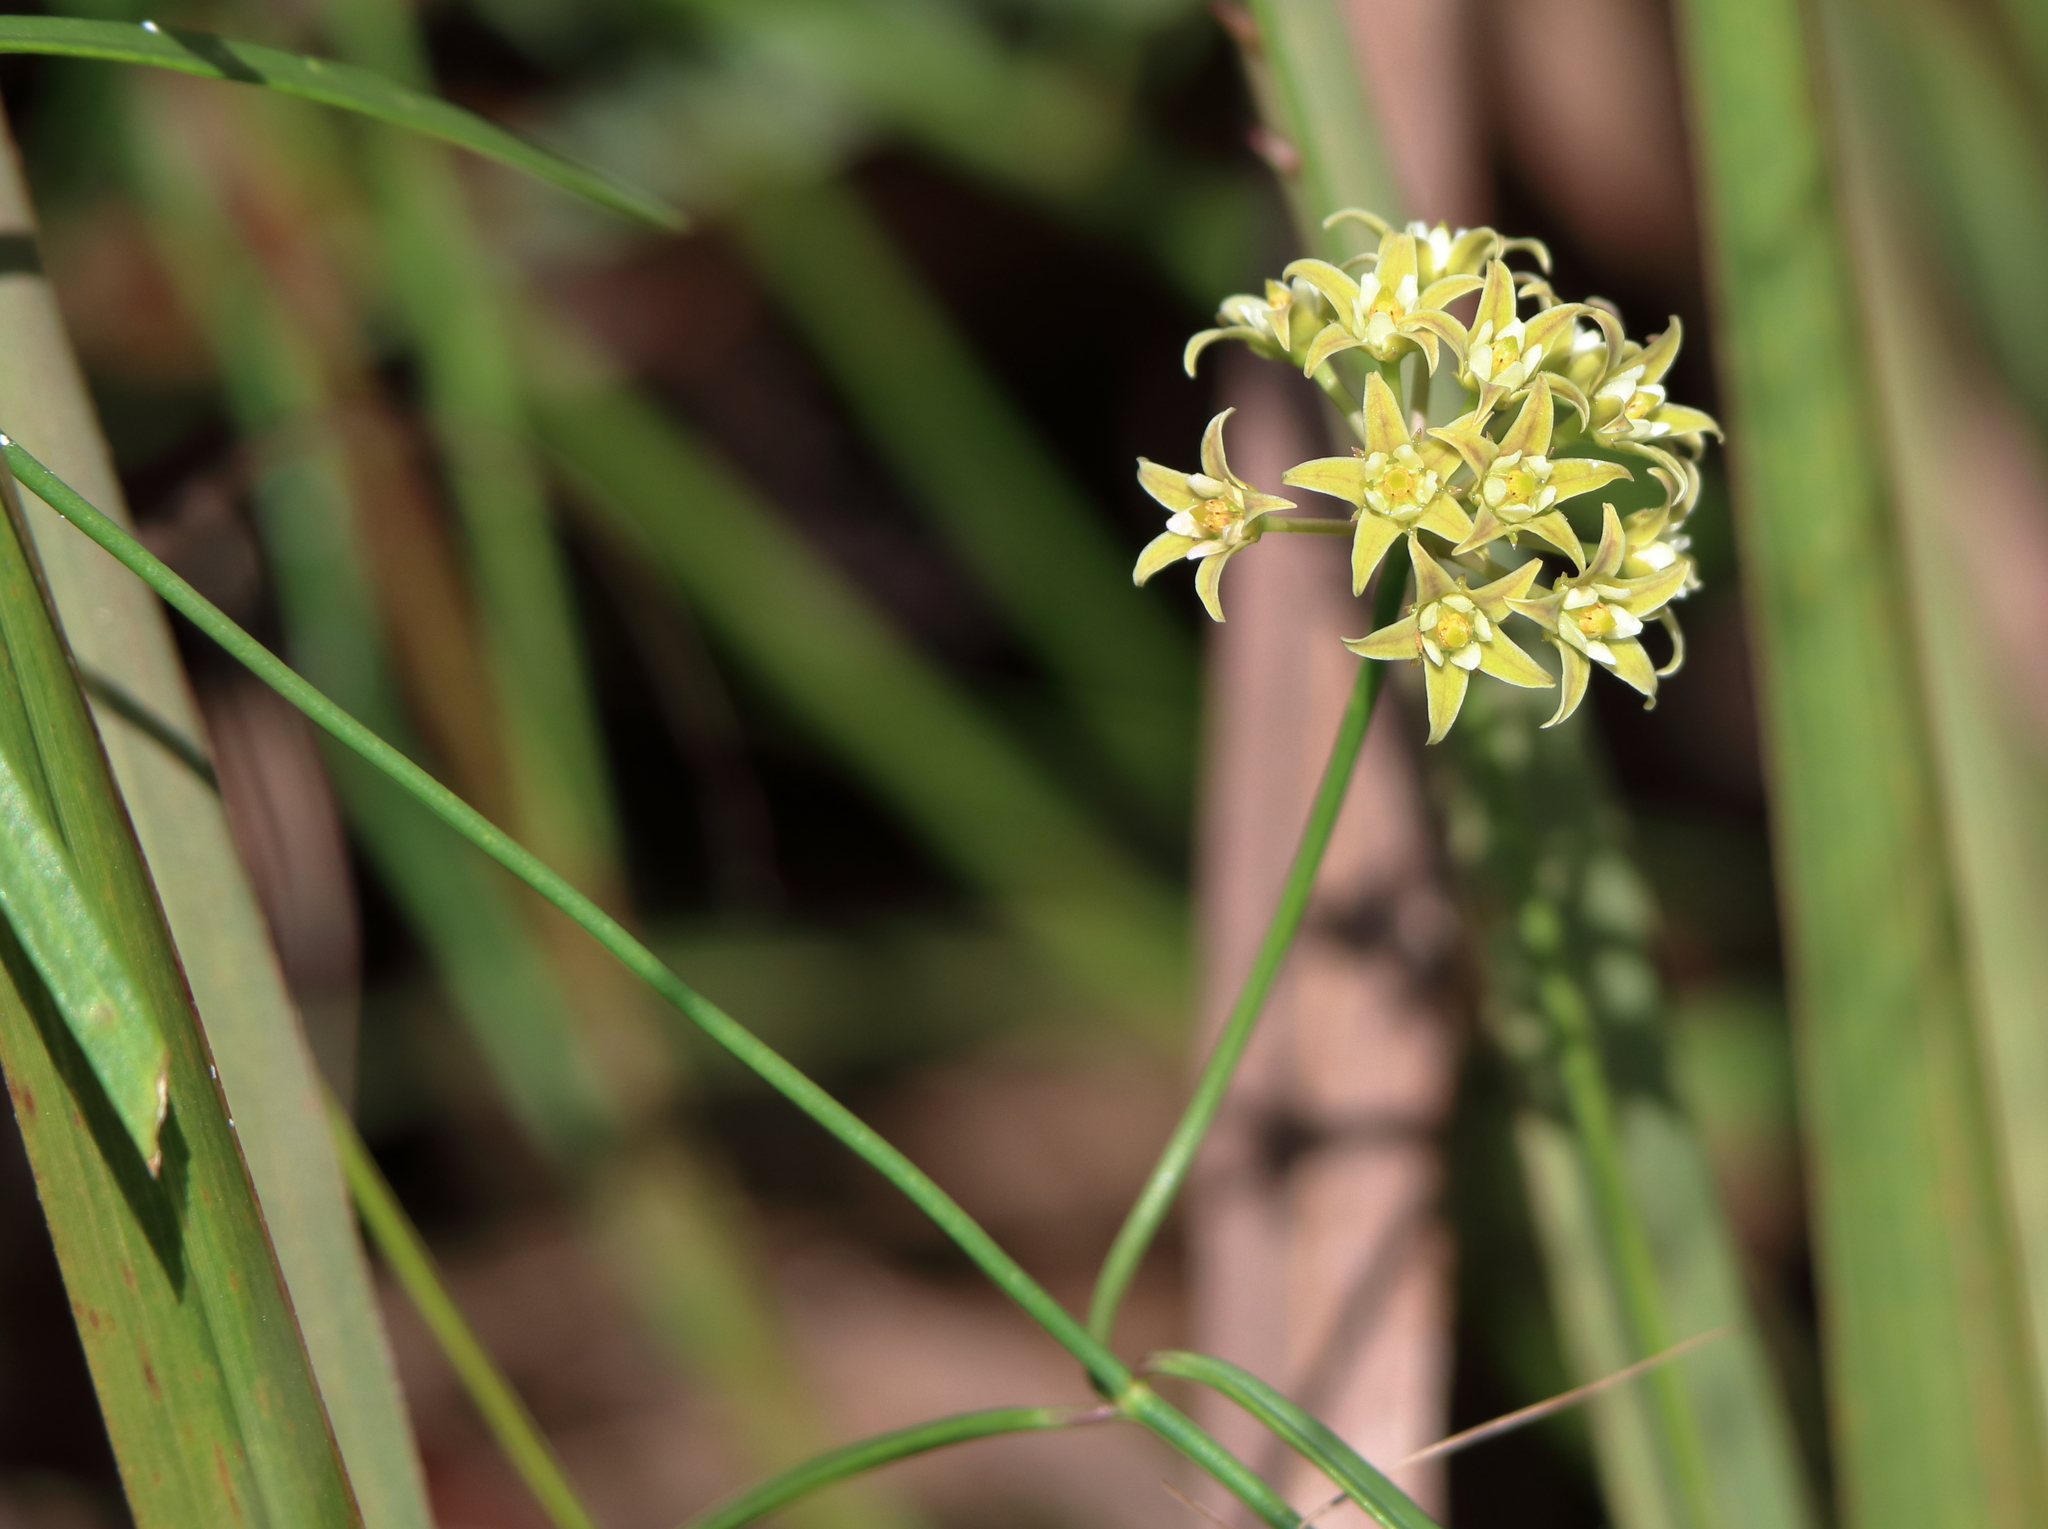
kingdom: Plantae
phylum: Tracheophyta
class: Magnoliopsida
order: Gentianales
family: Apocynaceae
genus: Pattalias
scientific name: Pattalias
